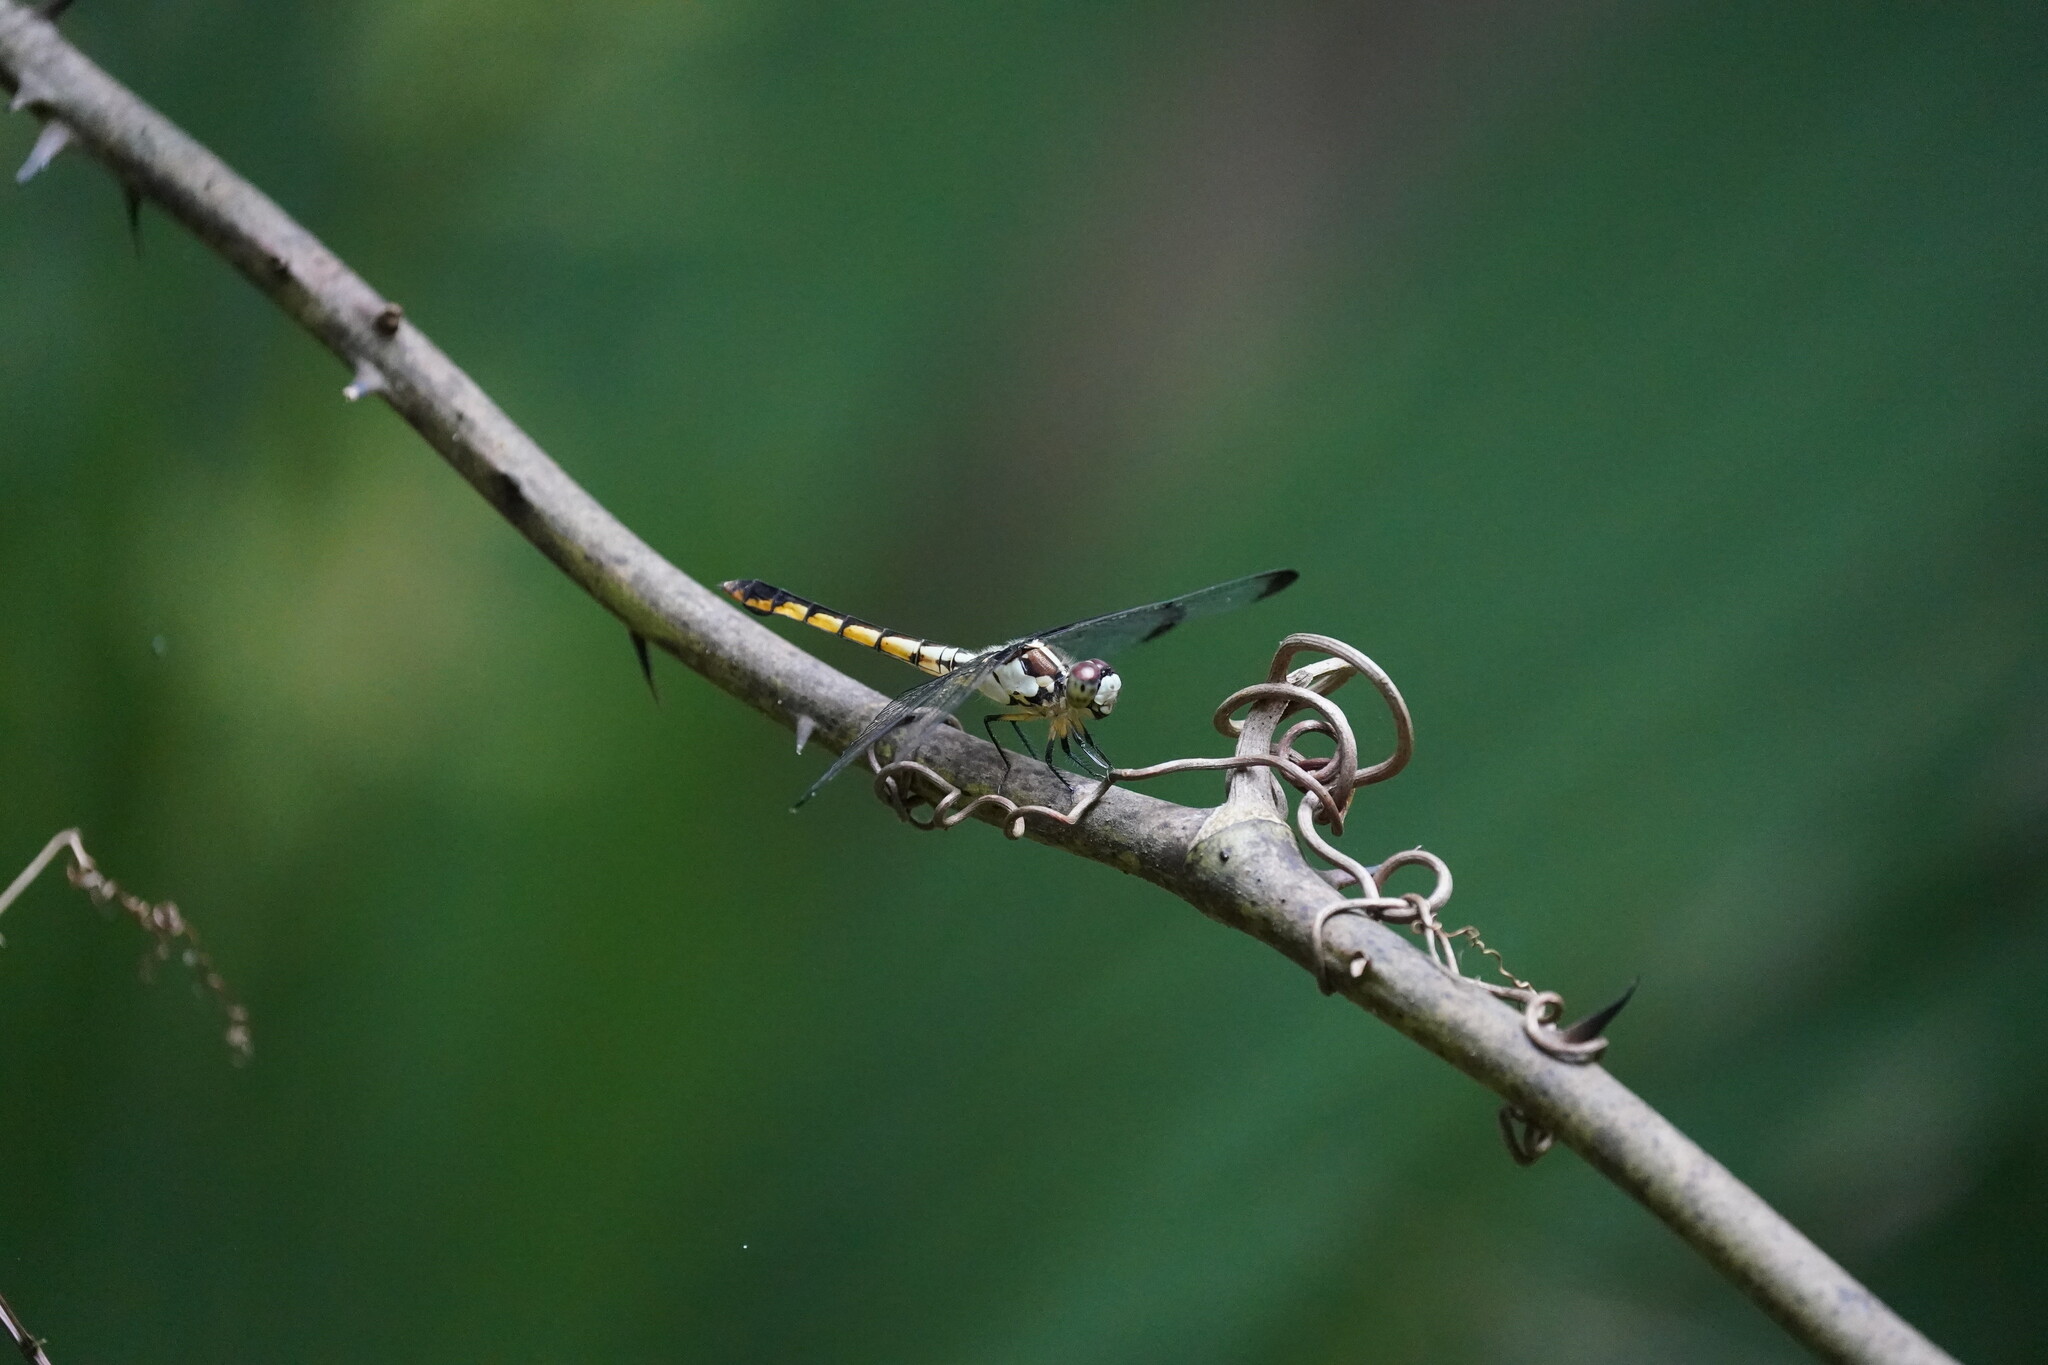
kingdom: Animalia
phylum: Arthropoda
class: Insecta
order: Odonata
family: Libellulidae
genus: Libellula
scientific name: Libellula vibrans
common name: Great blue skimmer
